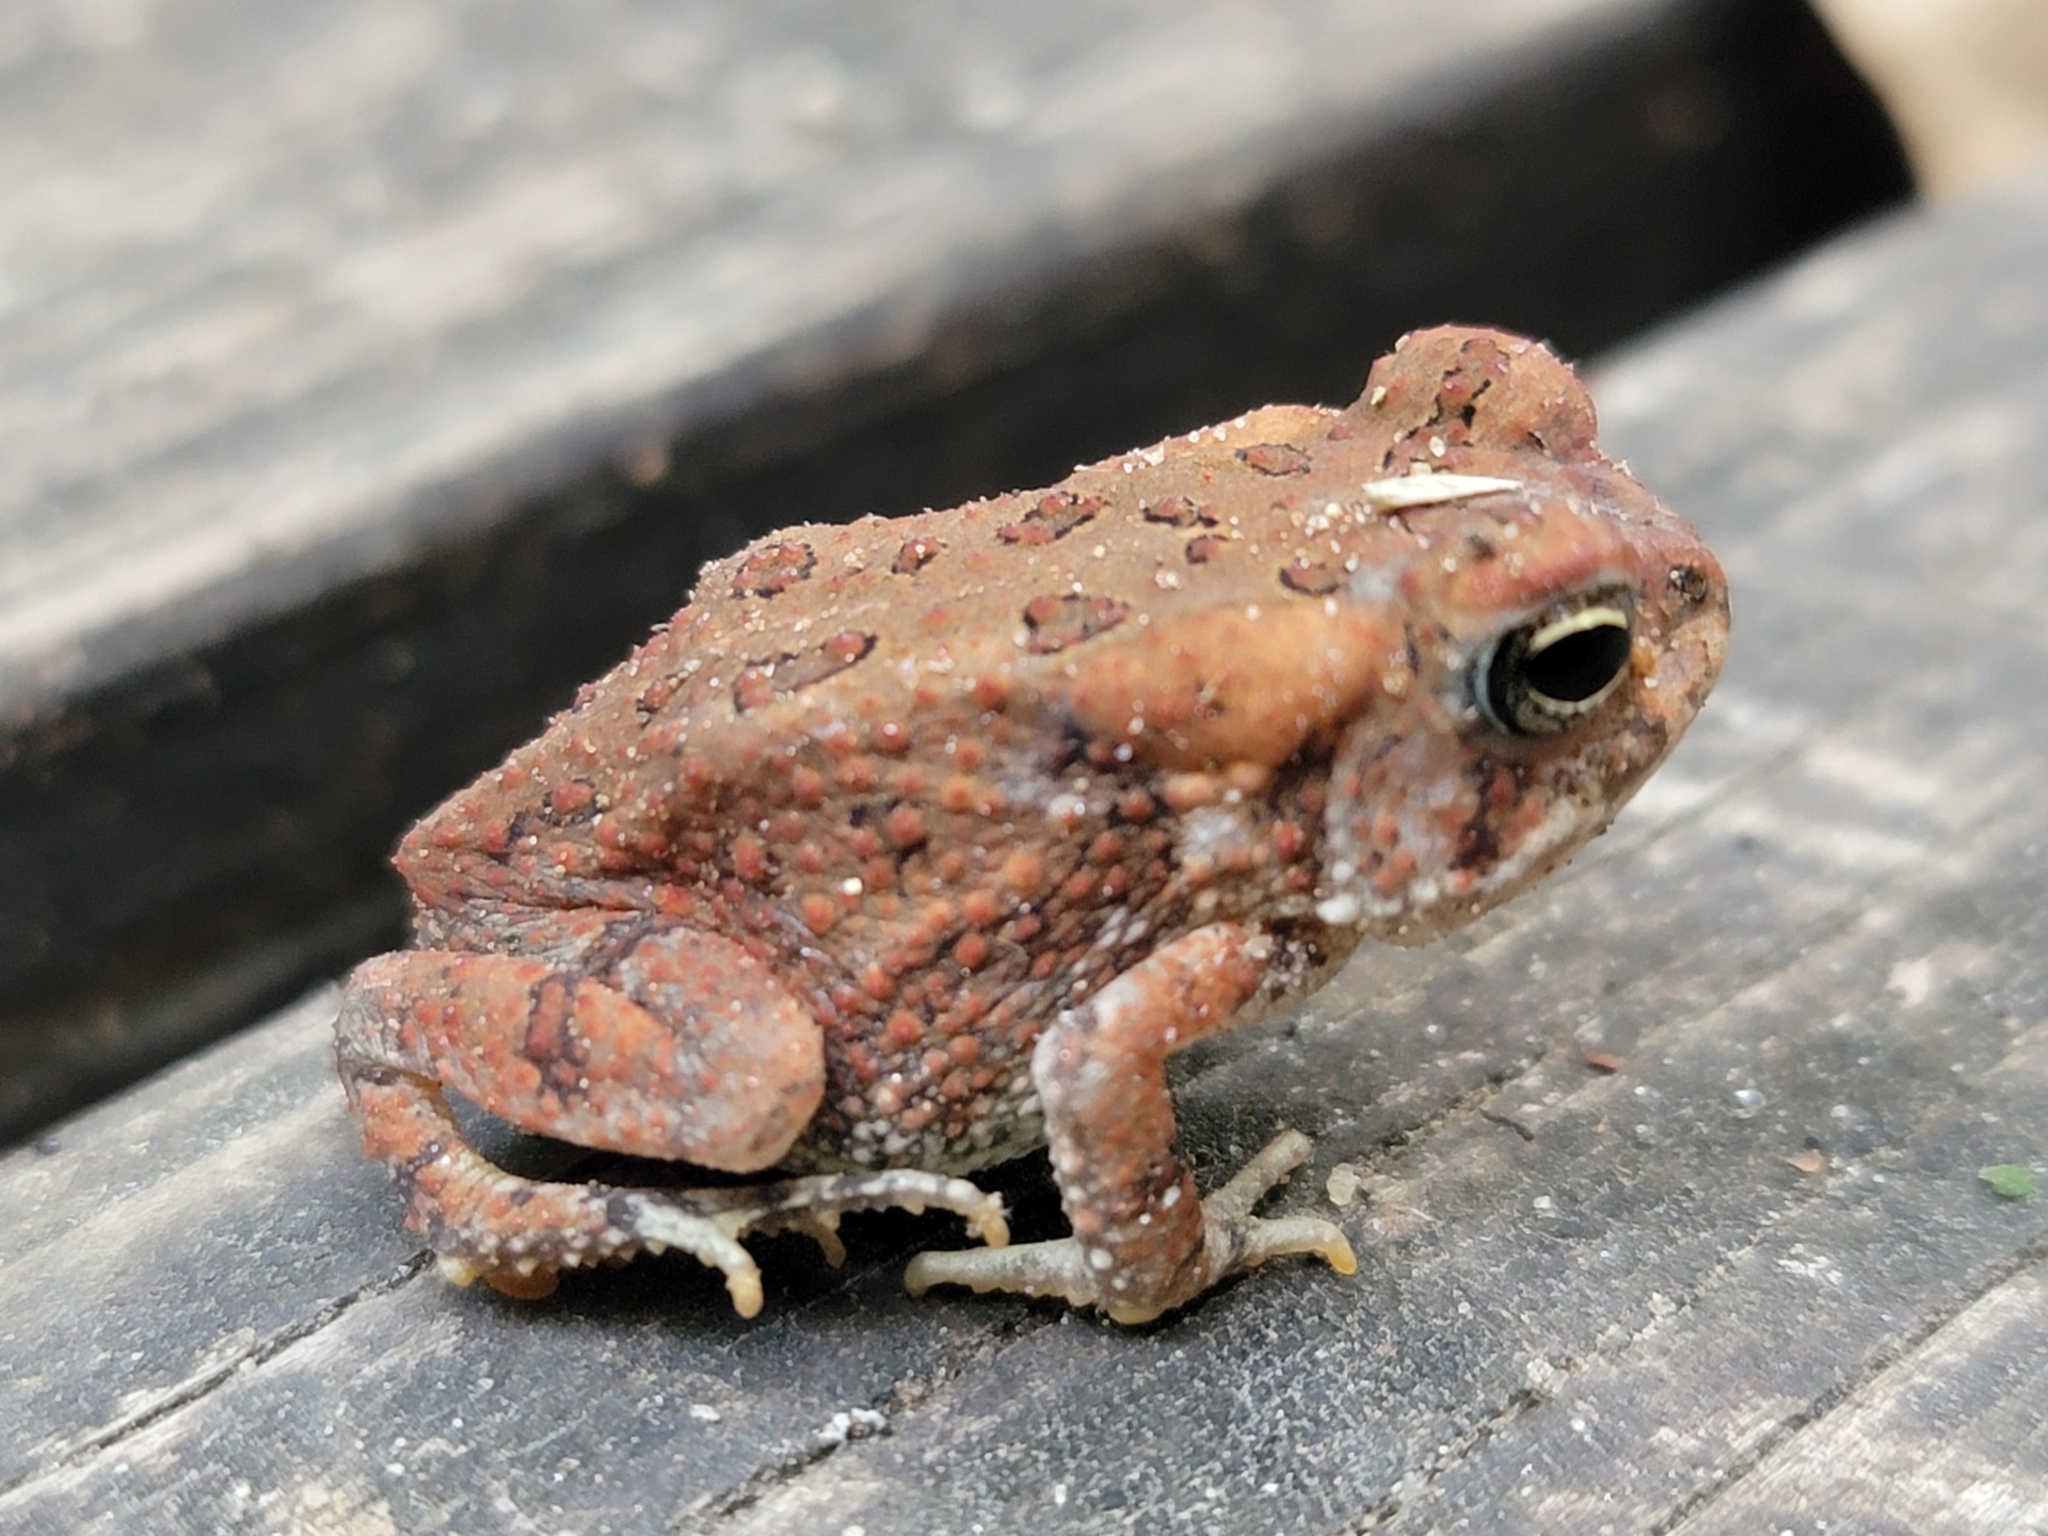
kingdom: Animalia
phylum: Chordata
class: Amphibia
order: Anura
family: Bufonidae
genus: Anaxyrus
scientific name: Anaxyrus fowleri
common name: Fowler's toad
